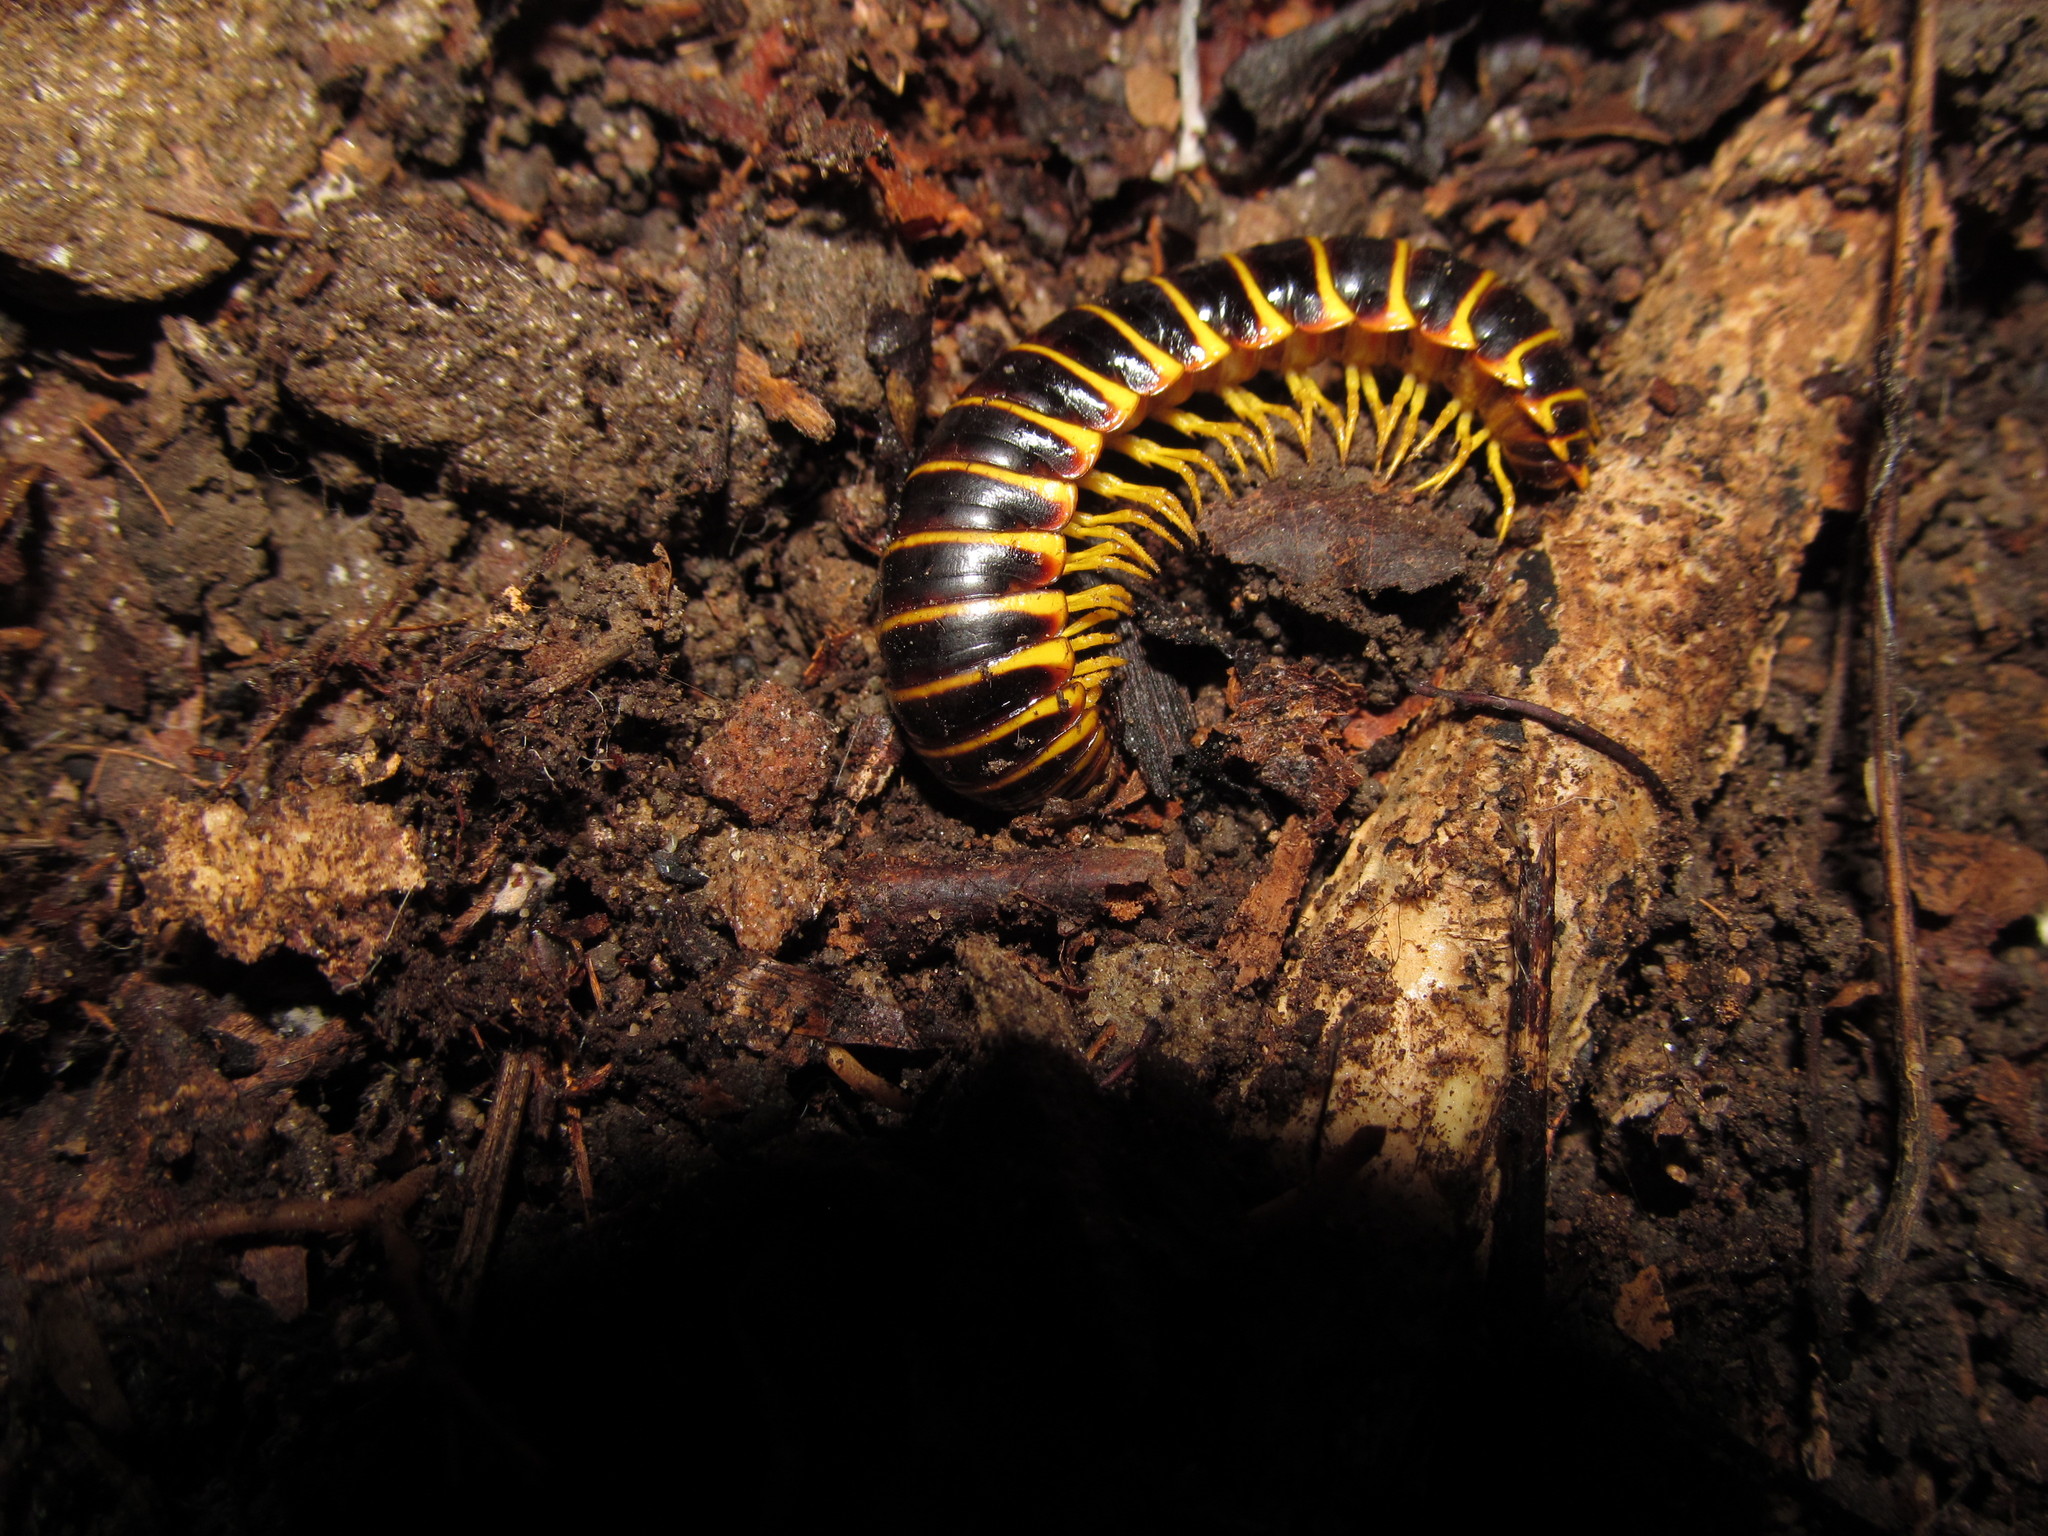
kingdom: Animalia
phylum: Arthropoda
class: Diplopoda
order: Polydesmida
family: Xystodesmidae
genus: Apheloria
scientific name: Apheloria virginiensis
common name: Black-and-gold flat millipede
